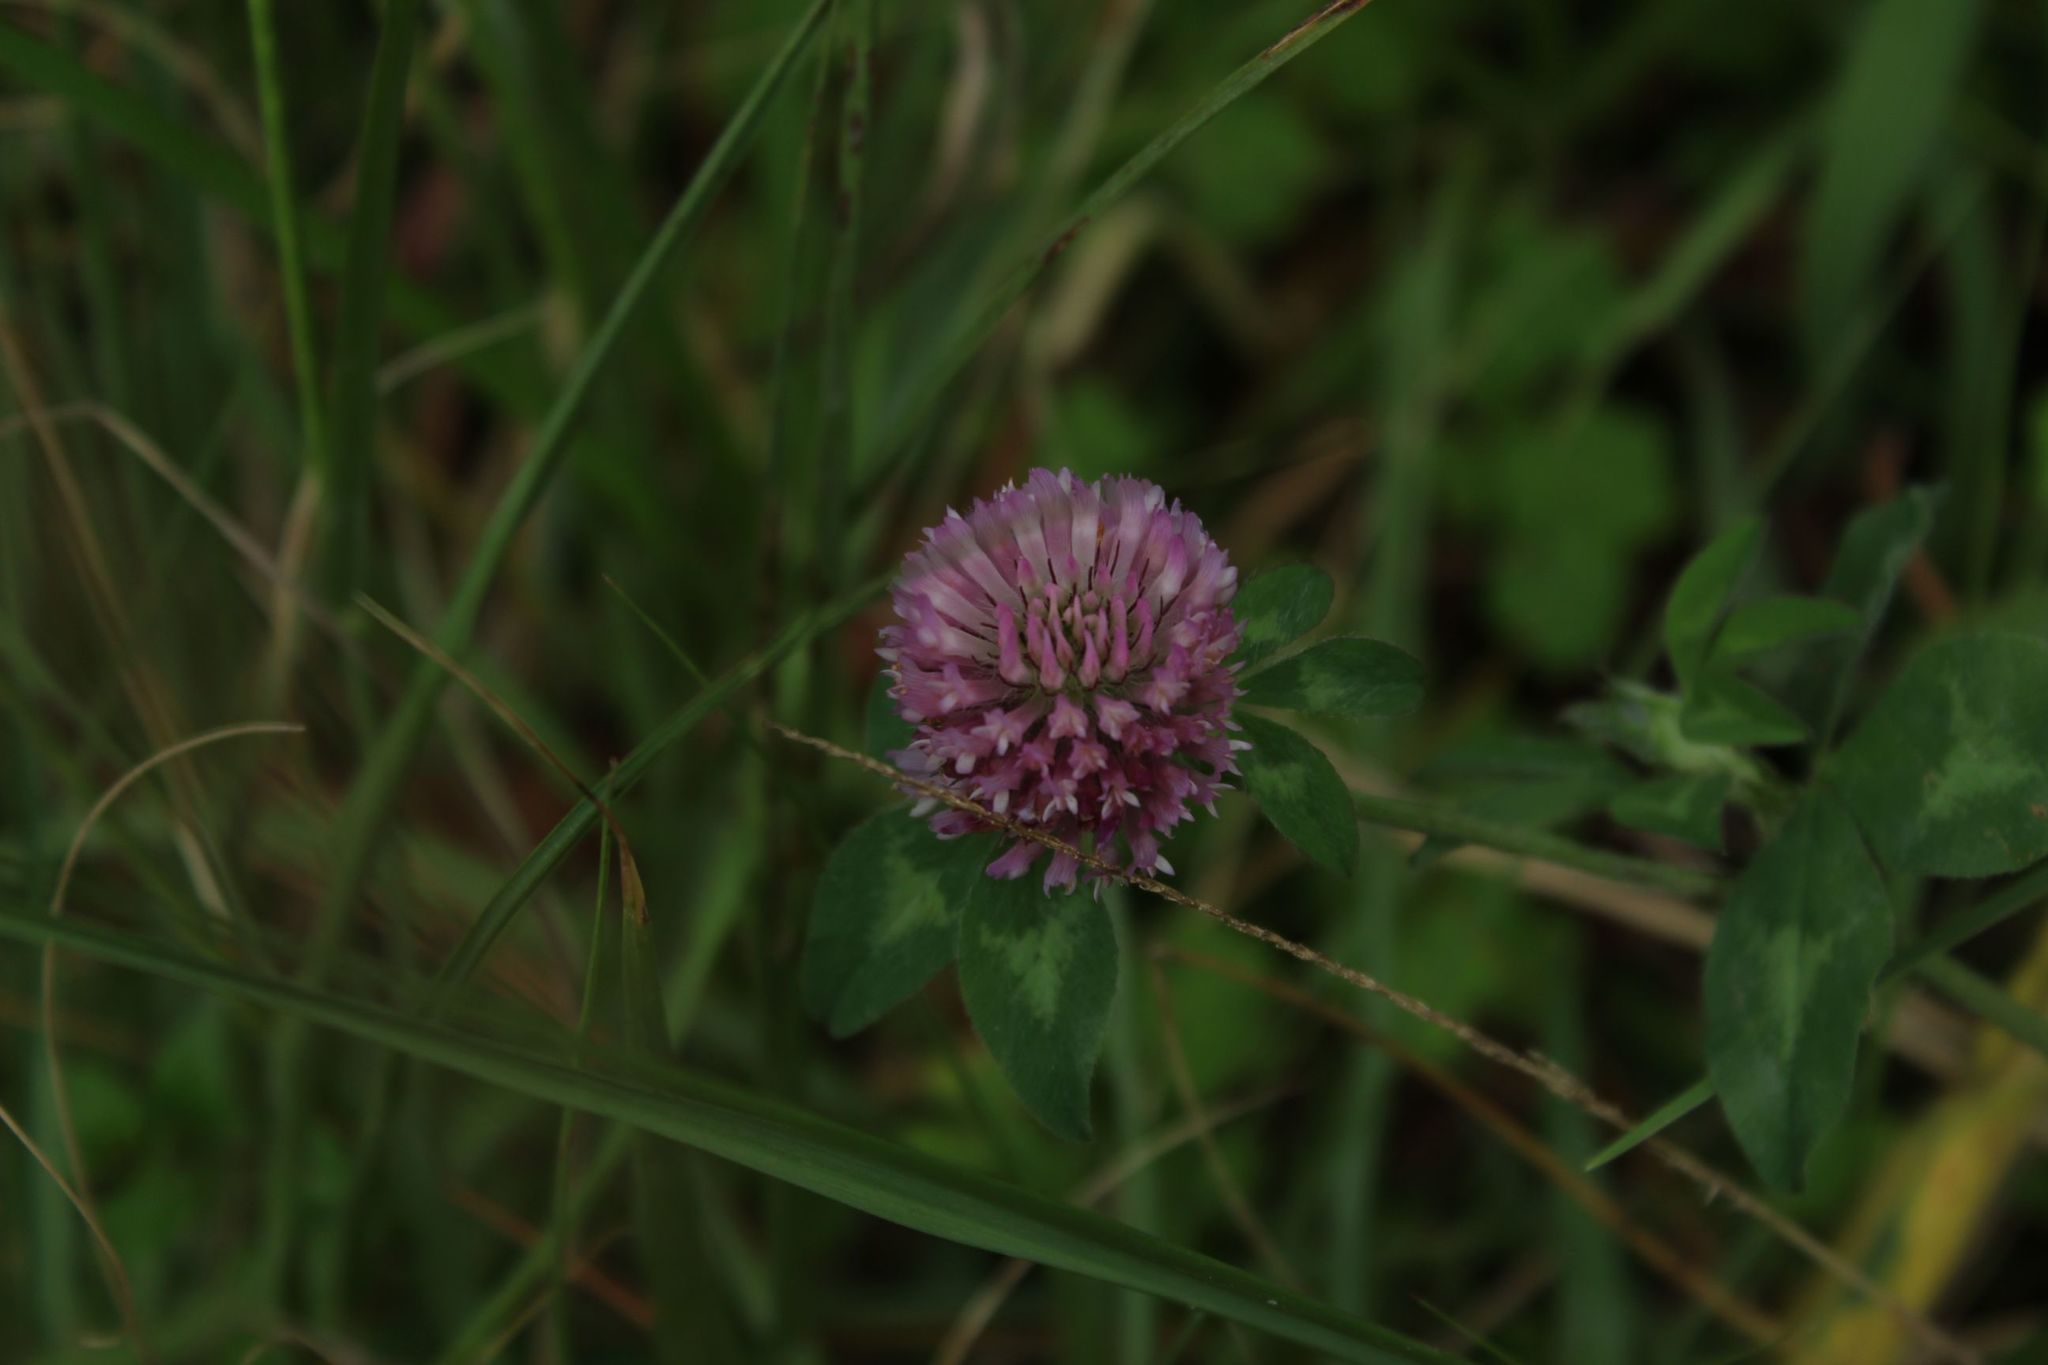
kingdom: Plantae
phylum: Tracheophyta
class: Magnoliopsida
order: Fabales
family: Fabaceae
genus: Trifolium
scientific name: Trifolium pratense
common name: Red clover
